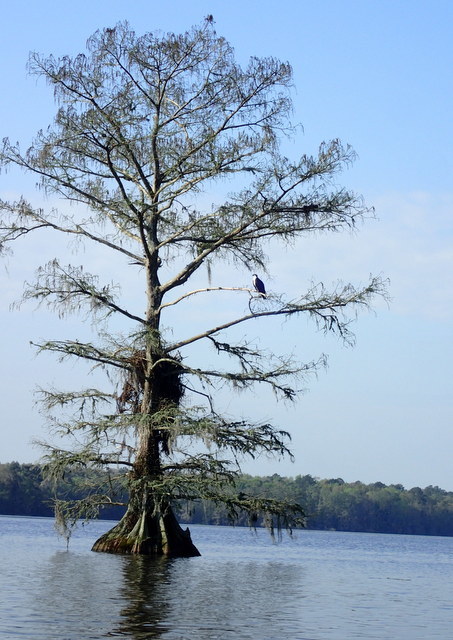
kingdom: Animalia
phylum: Chordata
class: Aves
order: Accipitriformes
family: Pandionidae
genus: Pandion
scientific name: Pandion haliaetus
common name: Osprey
